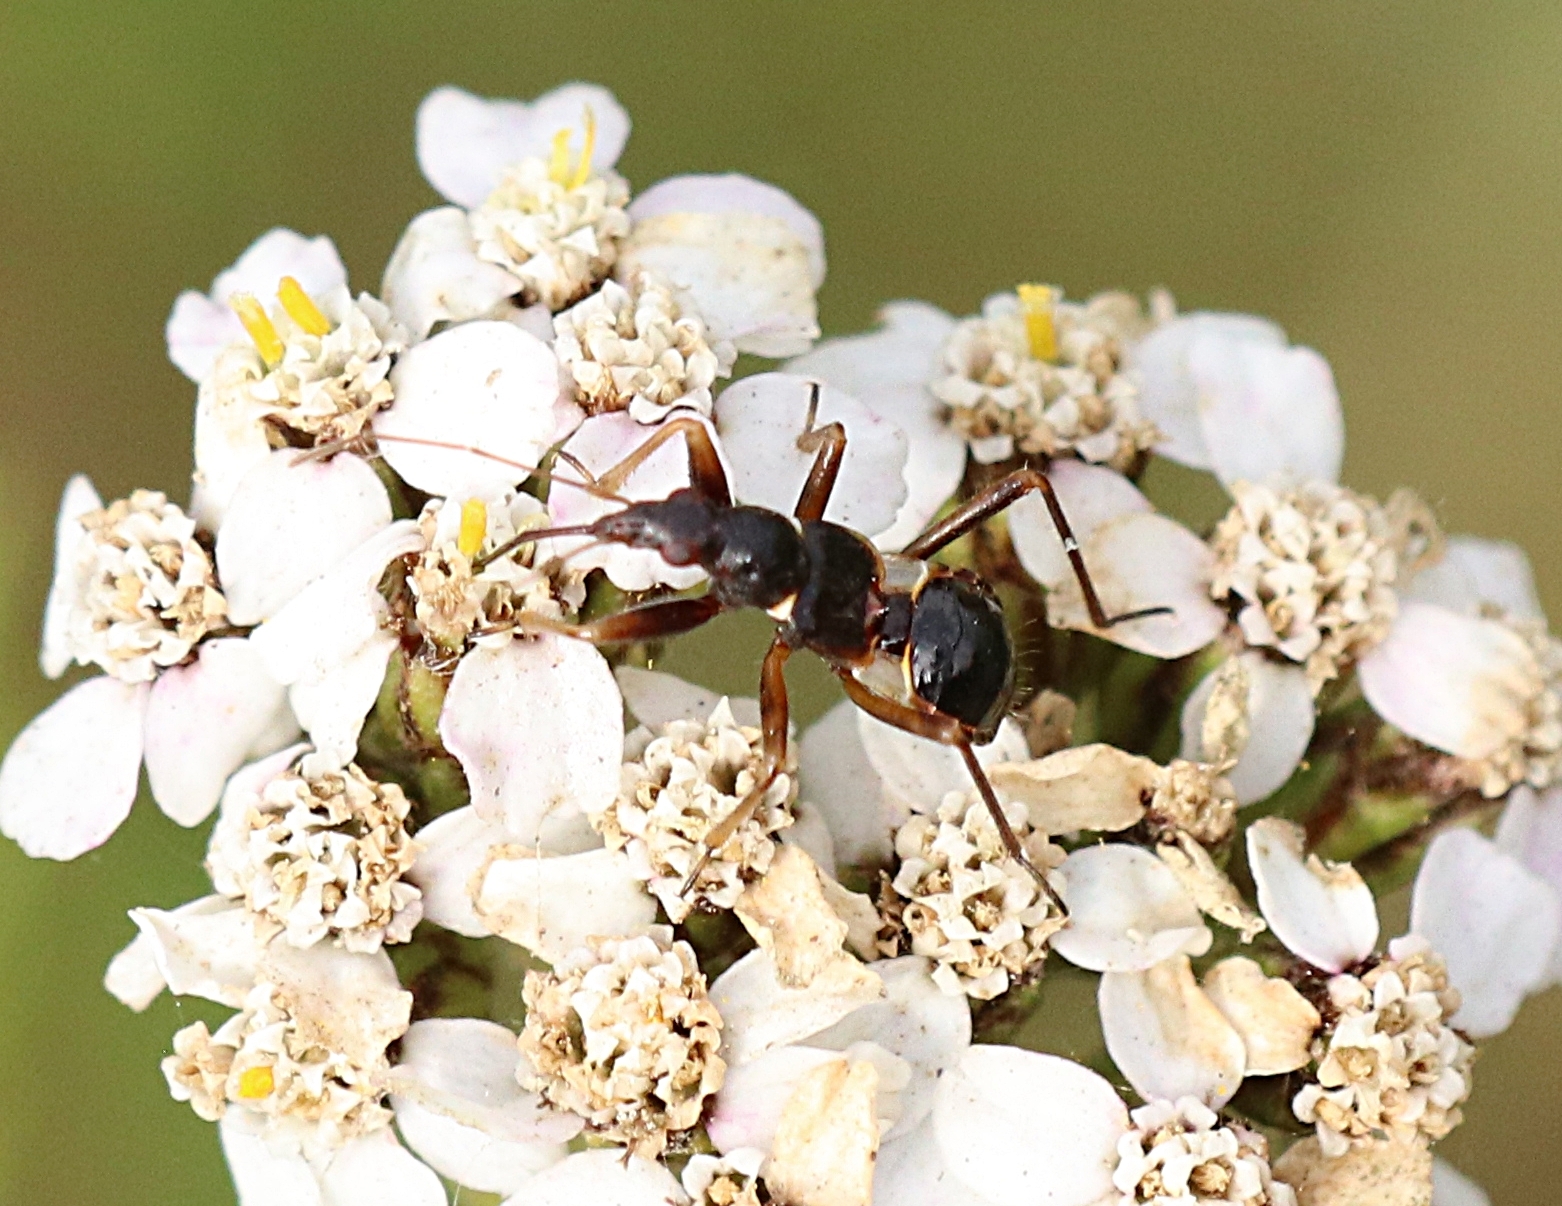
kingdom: Animalia
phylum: Arthropoda
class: Insecta
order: Hemiptera
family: Nabidae
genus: Himacerus
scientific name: Himacerus mirmicoides
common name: Ant damsel bug
